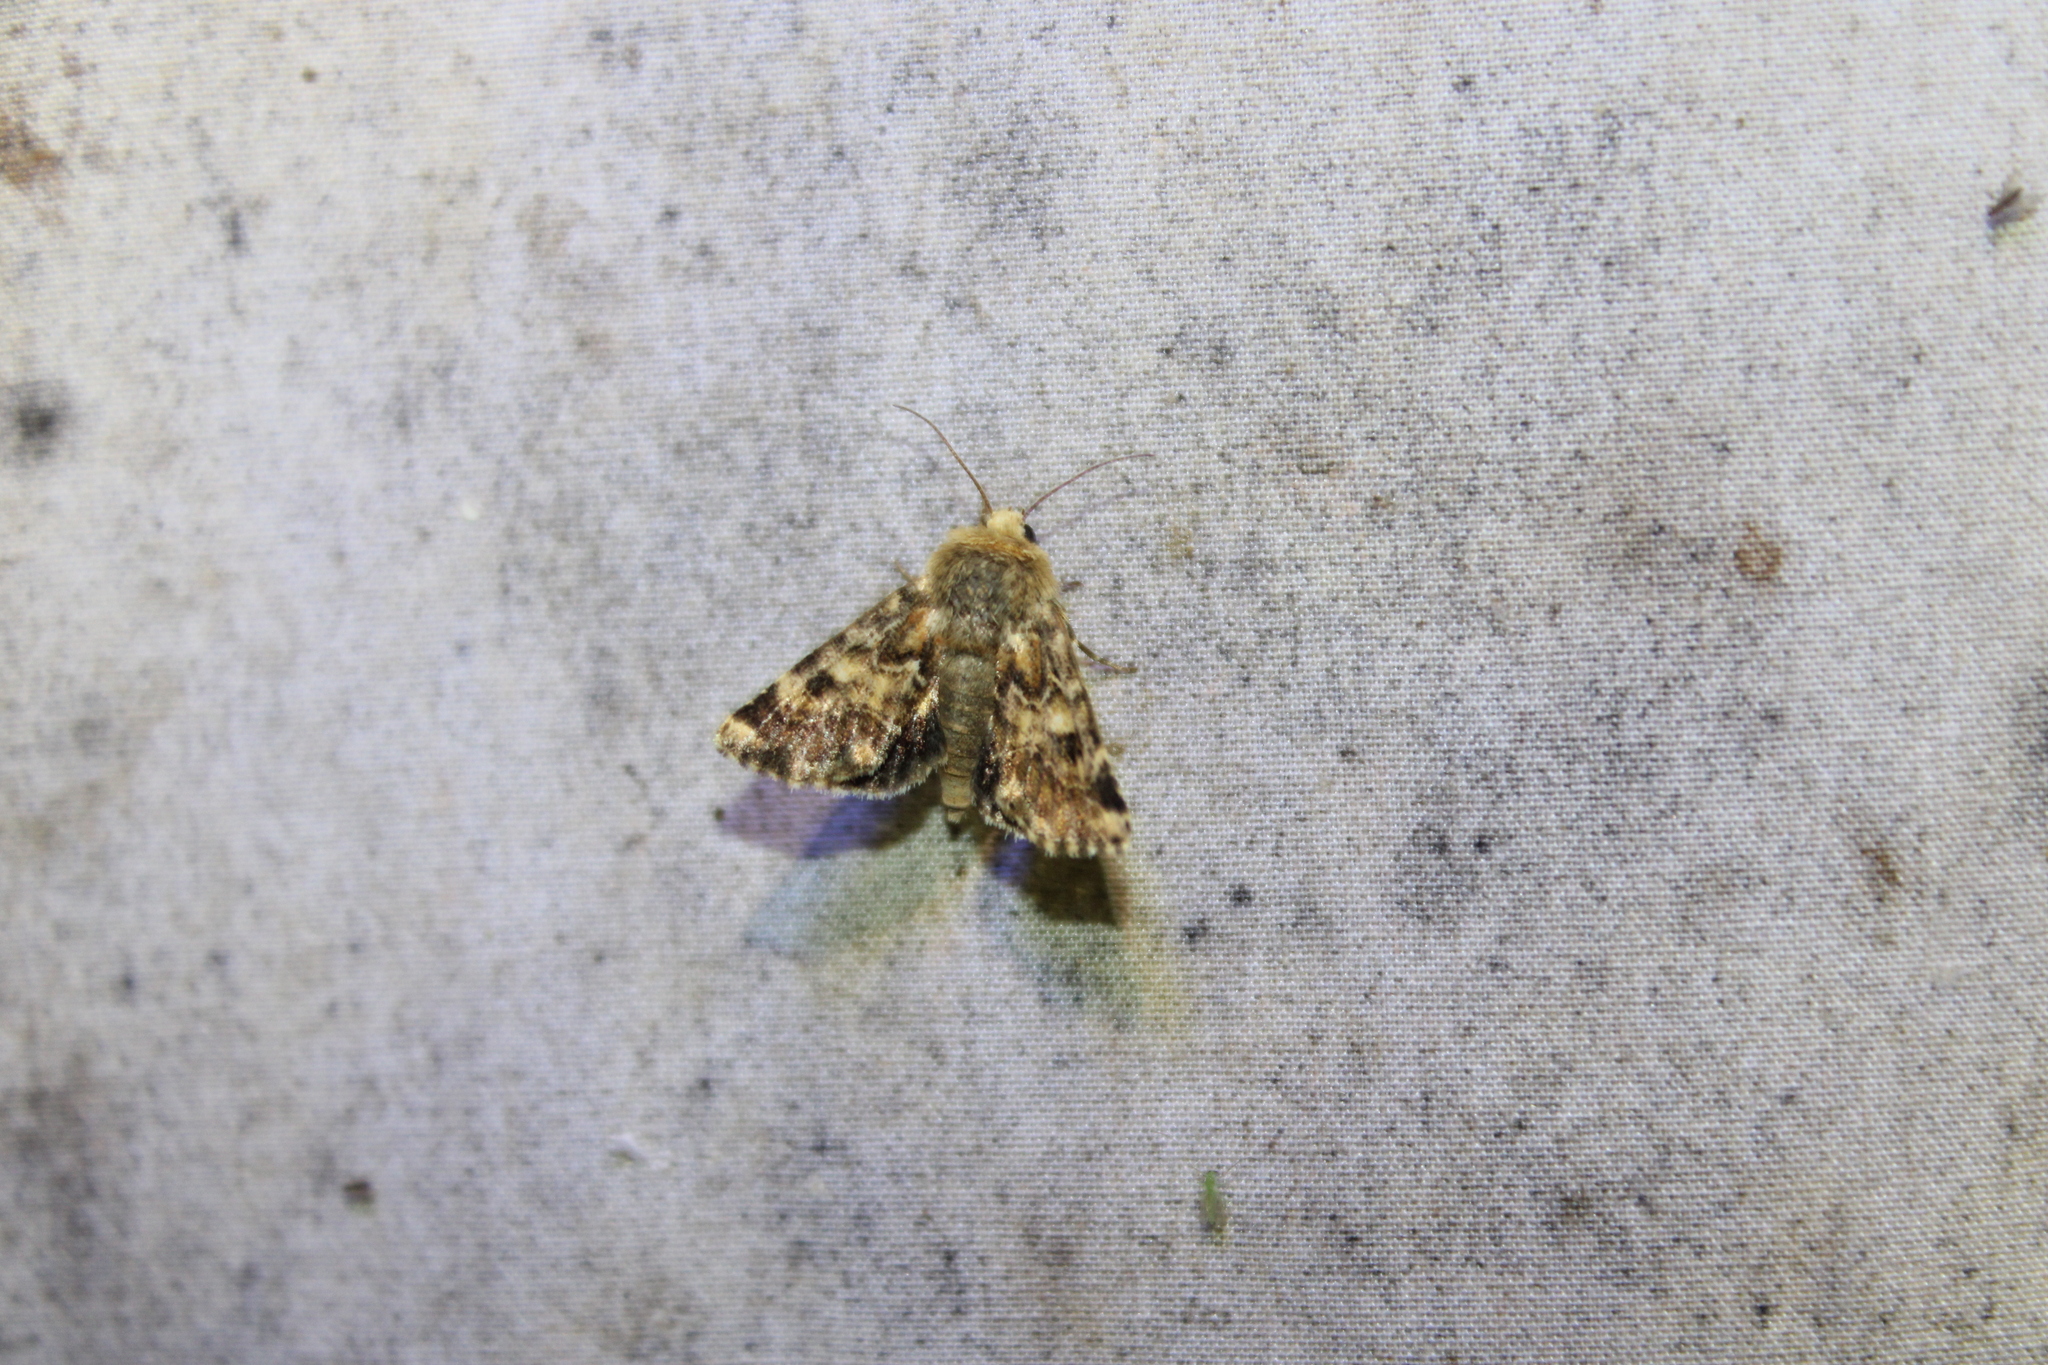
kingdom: Animalia
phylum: Arthropoda
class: Insecta
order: Lepidoptera
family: Noctuidae
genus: Schinia
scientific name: Schinia septentrionalis
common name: Northern flower moth
